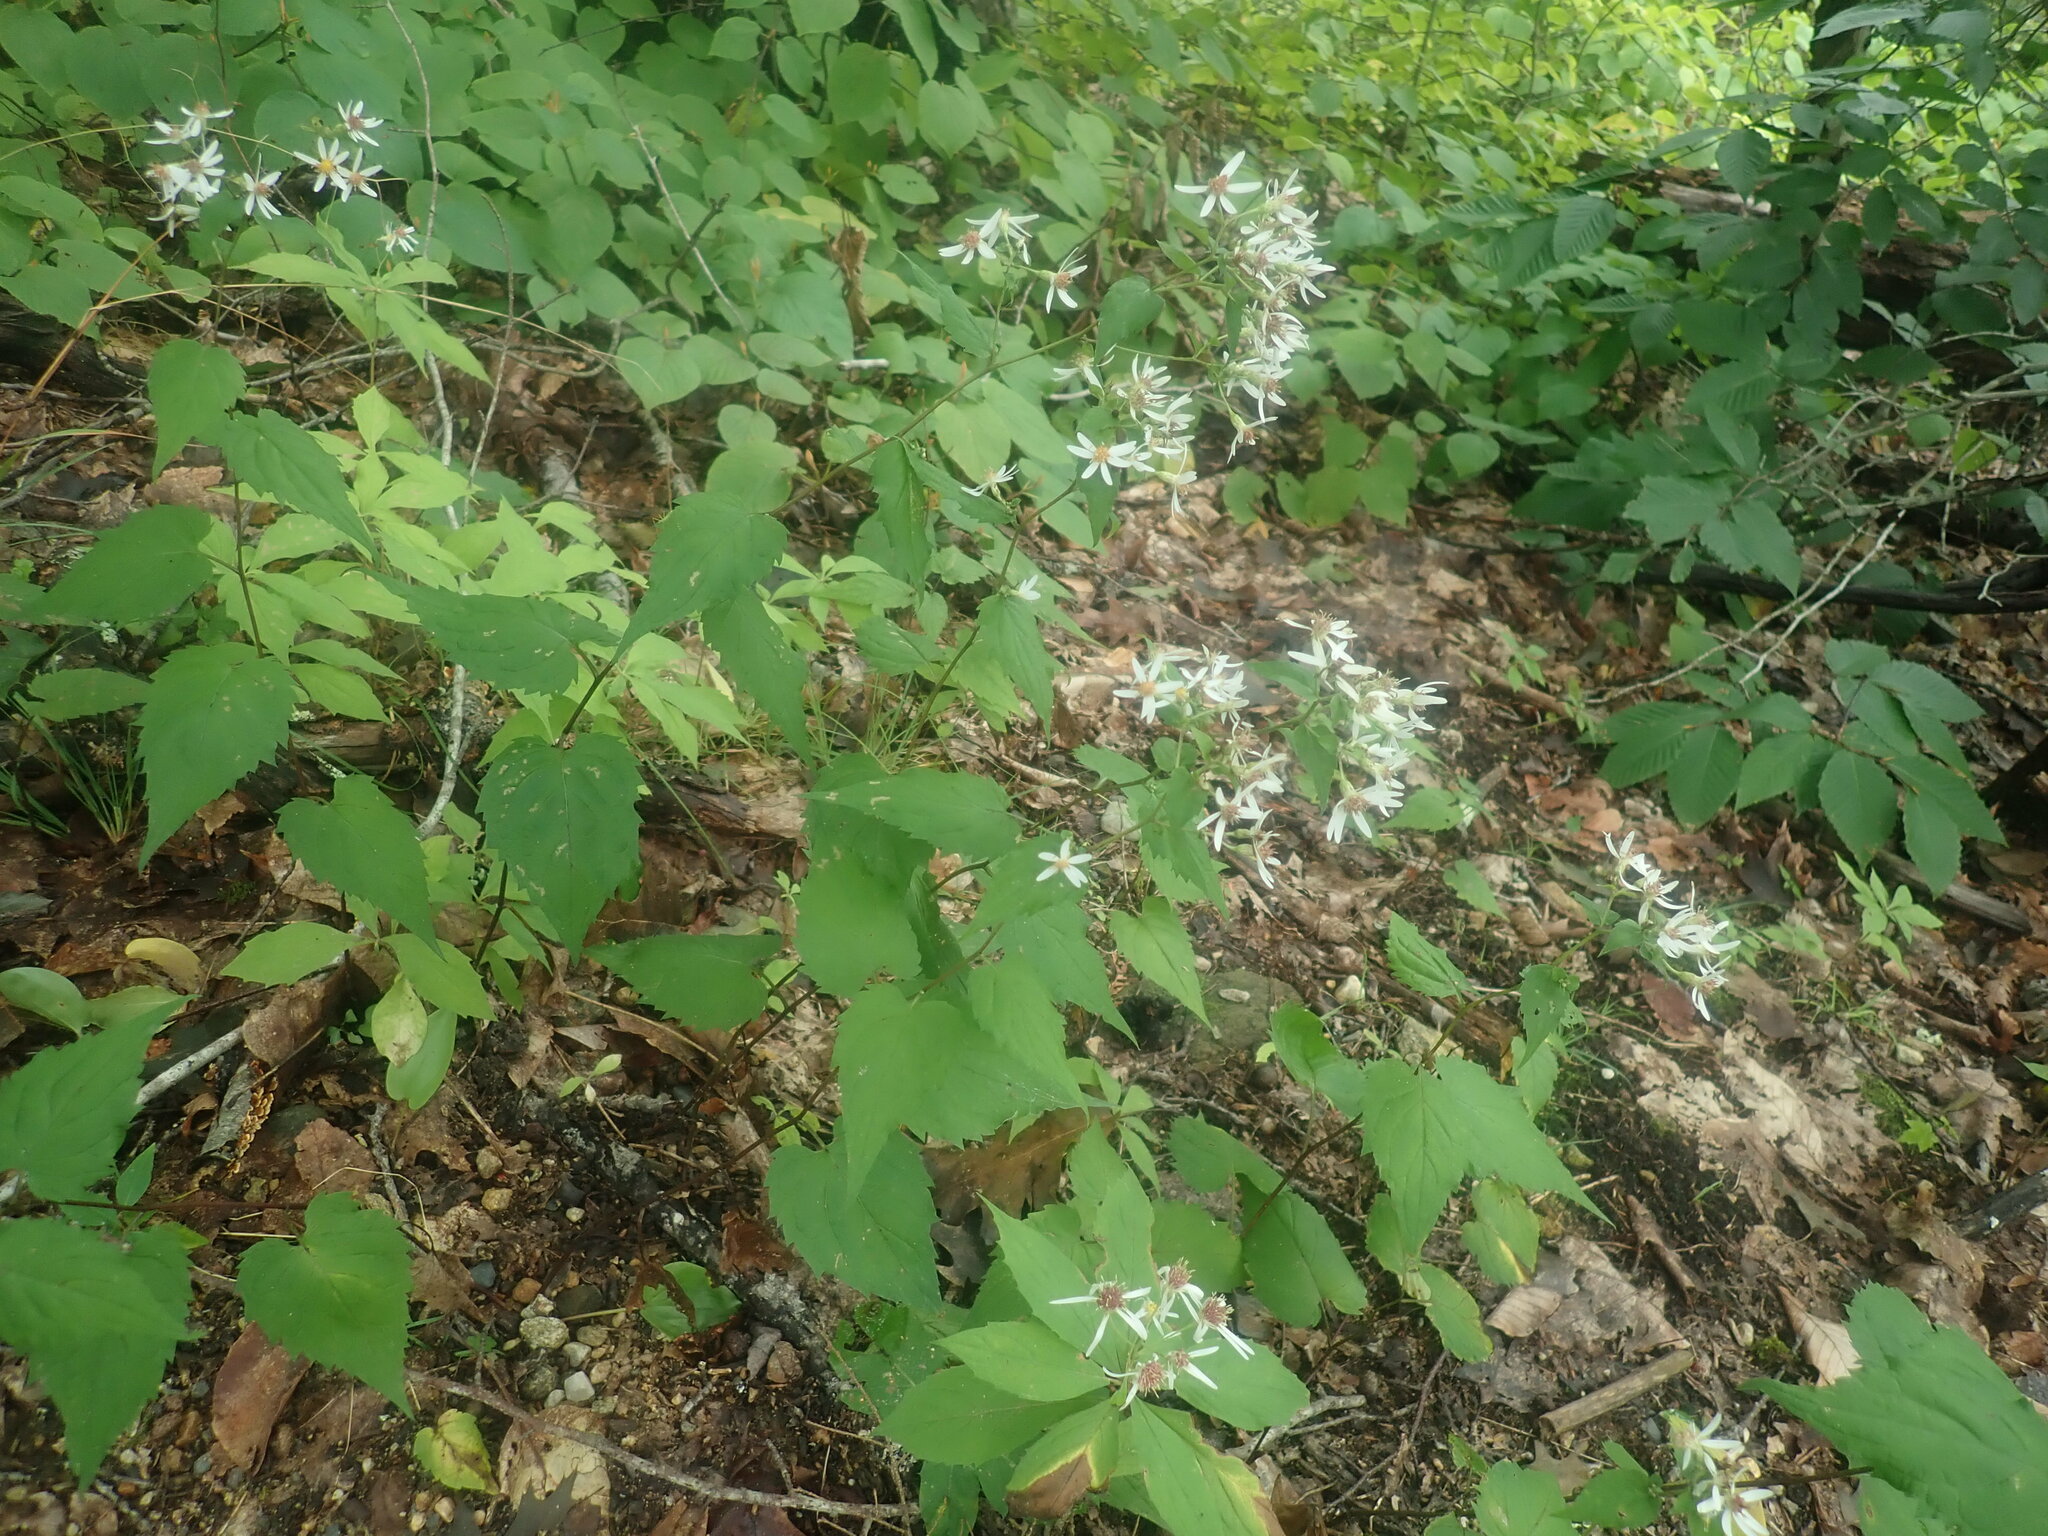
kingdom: Plantae
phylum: Tracheophyta
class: Magnoliopsida
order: Asterales
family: Asteraceae
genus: Eurybia
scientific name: Eurybia divaricata
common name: White wood aster
